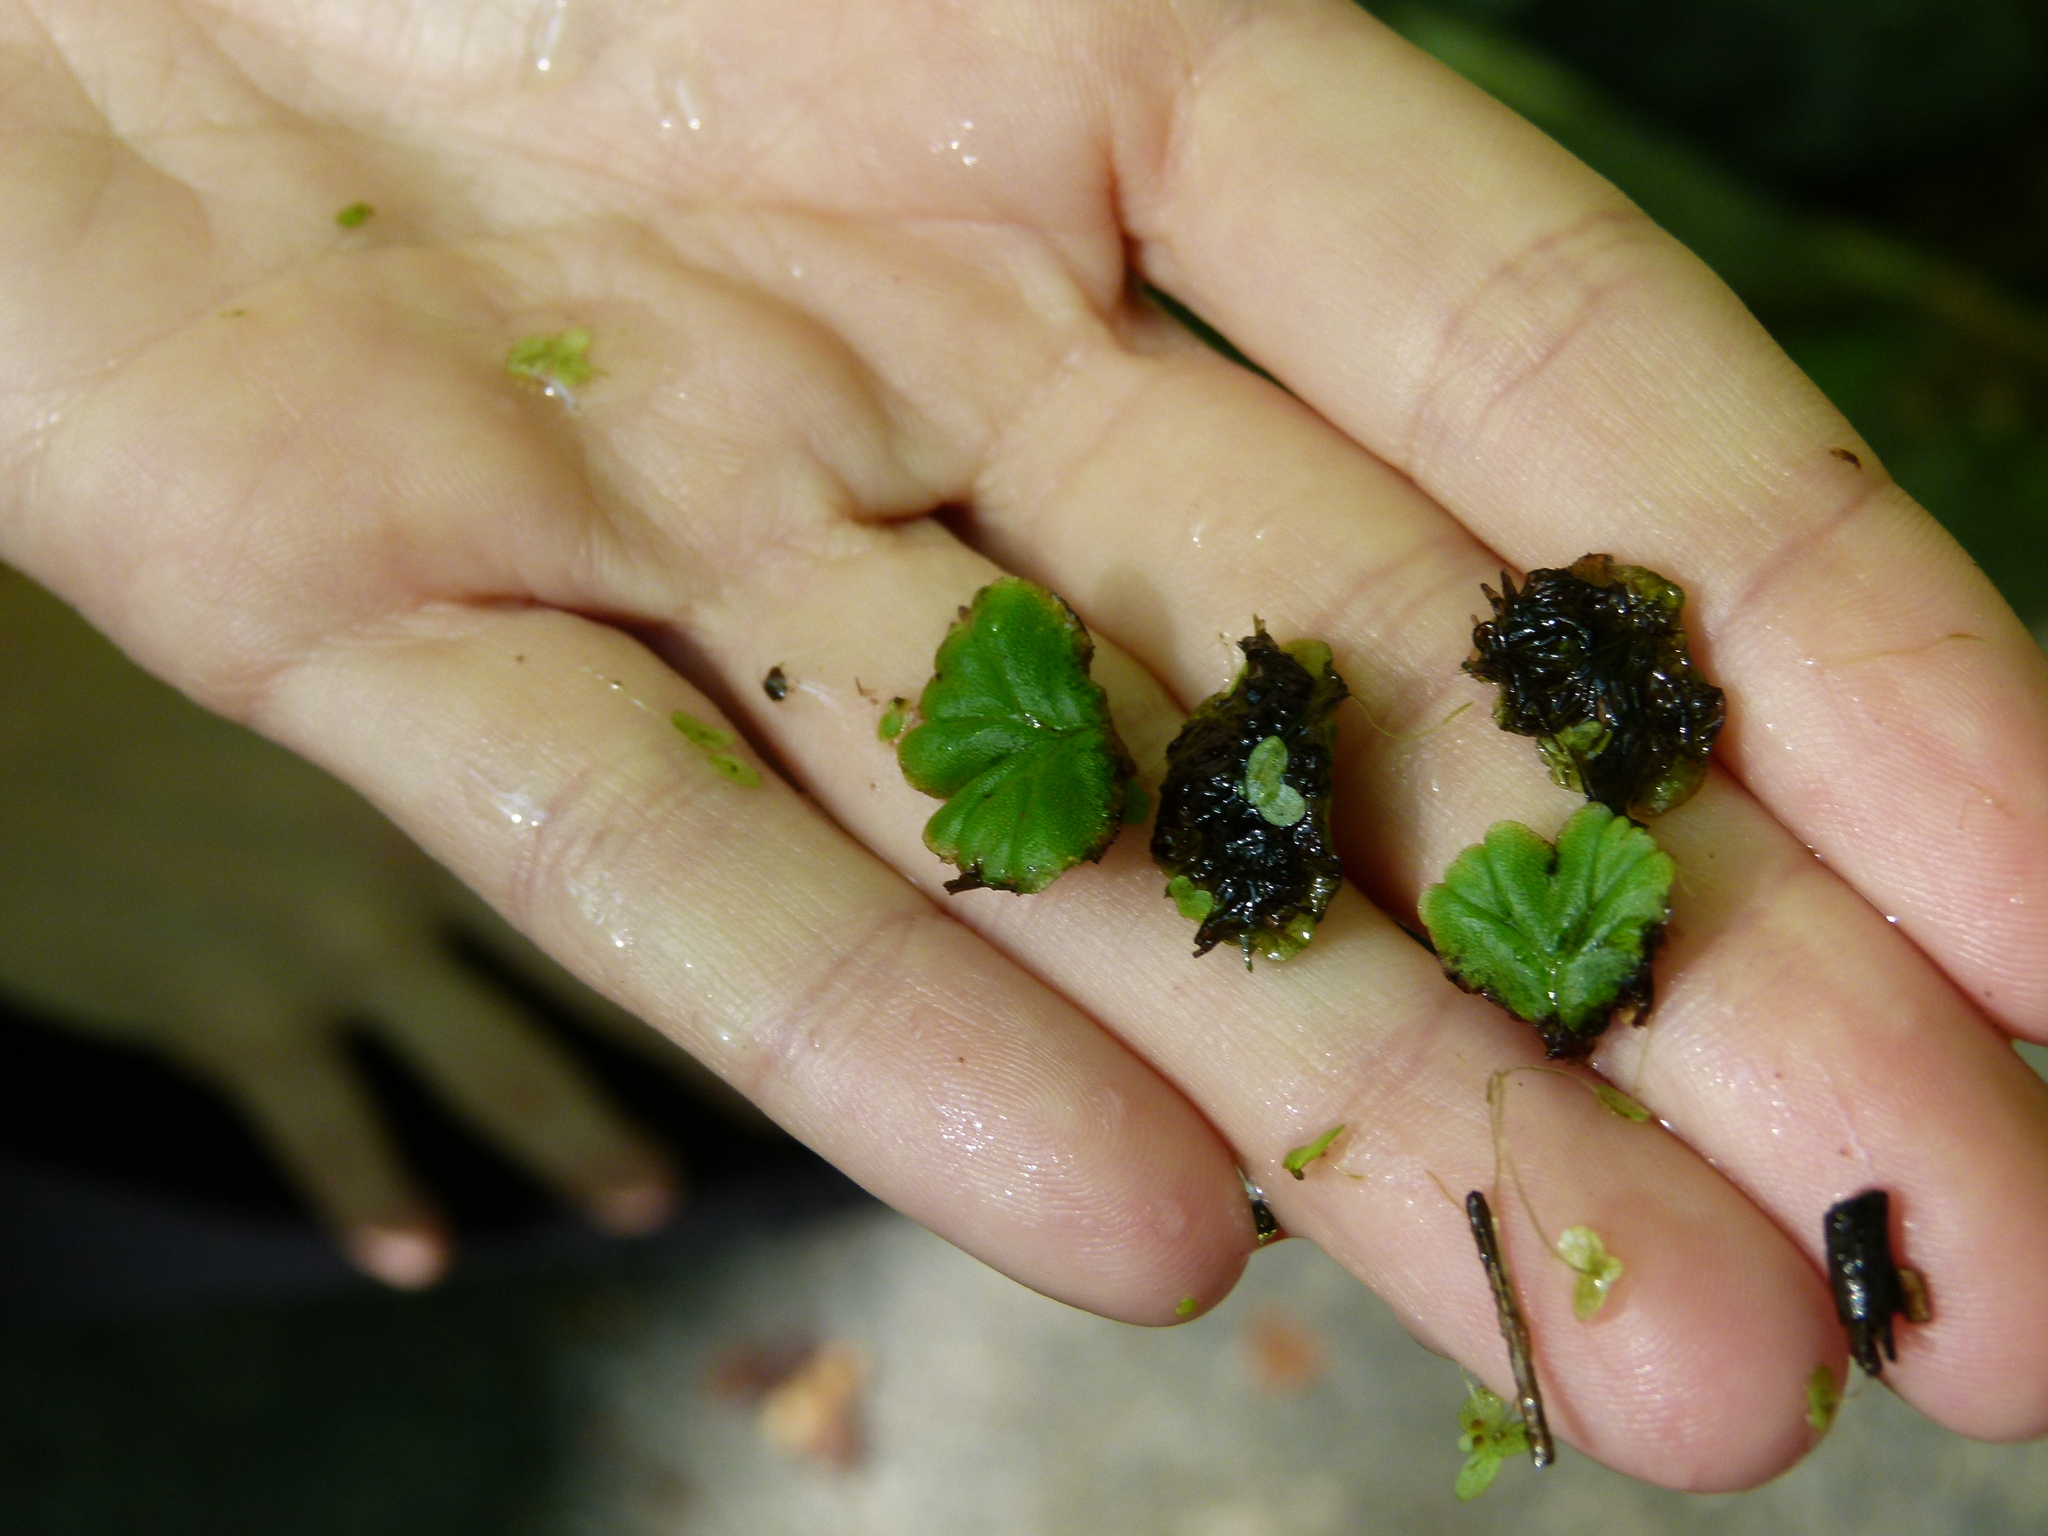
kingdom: Plantae
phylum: Marchantiophyta
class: Marchantiopsida
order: Marchantiales
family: Ricciaceae
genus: Ricciocarpos
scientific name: Ricciocarpos natans
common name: Purple-fringed liverwort
